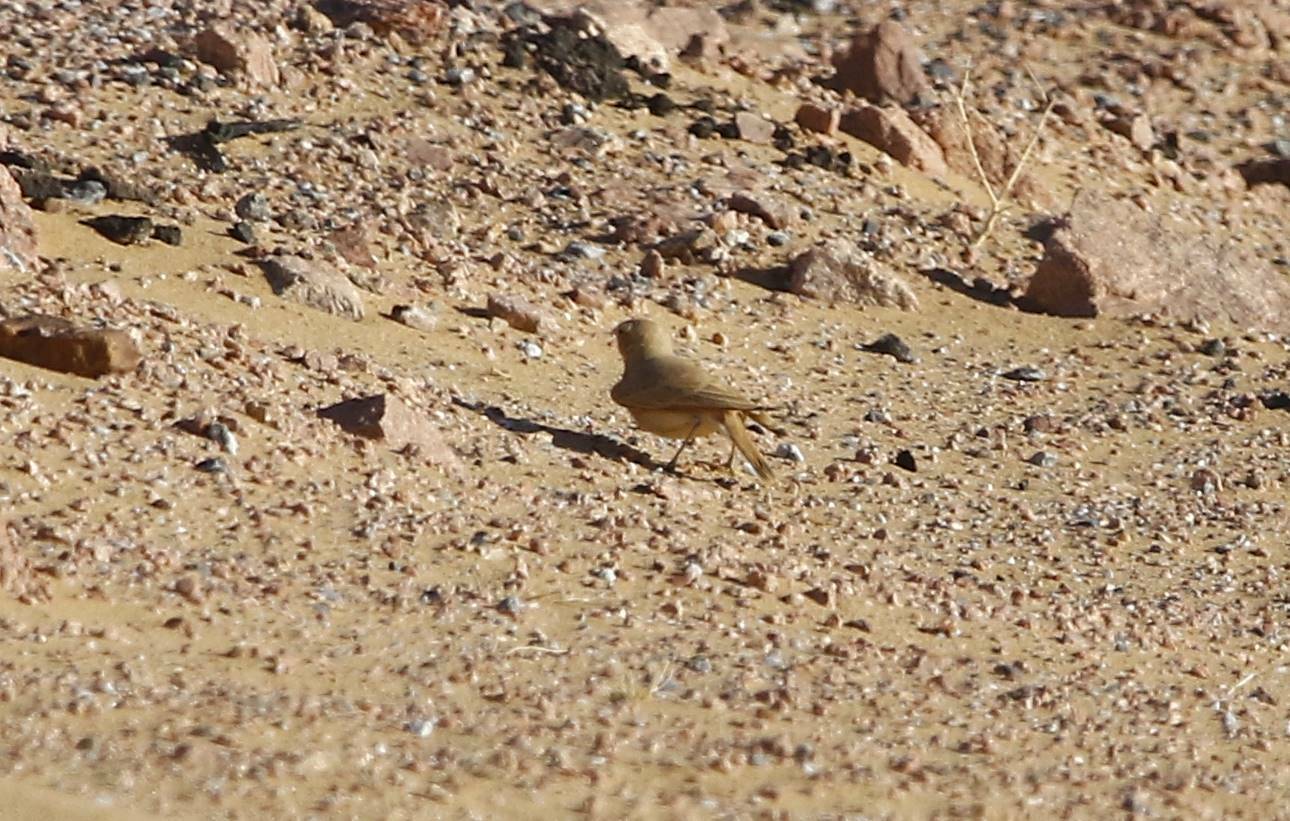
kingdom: Animalia
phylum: Chordata
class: Aves
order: Passeriformes
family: Alaudidae
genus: Ammomanes
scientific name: Ammomanes cinctura
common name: Bar-tailed lark
